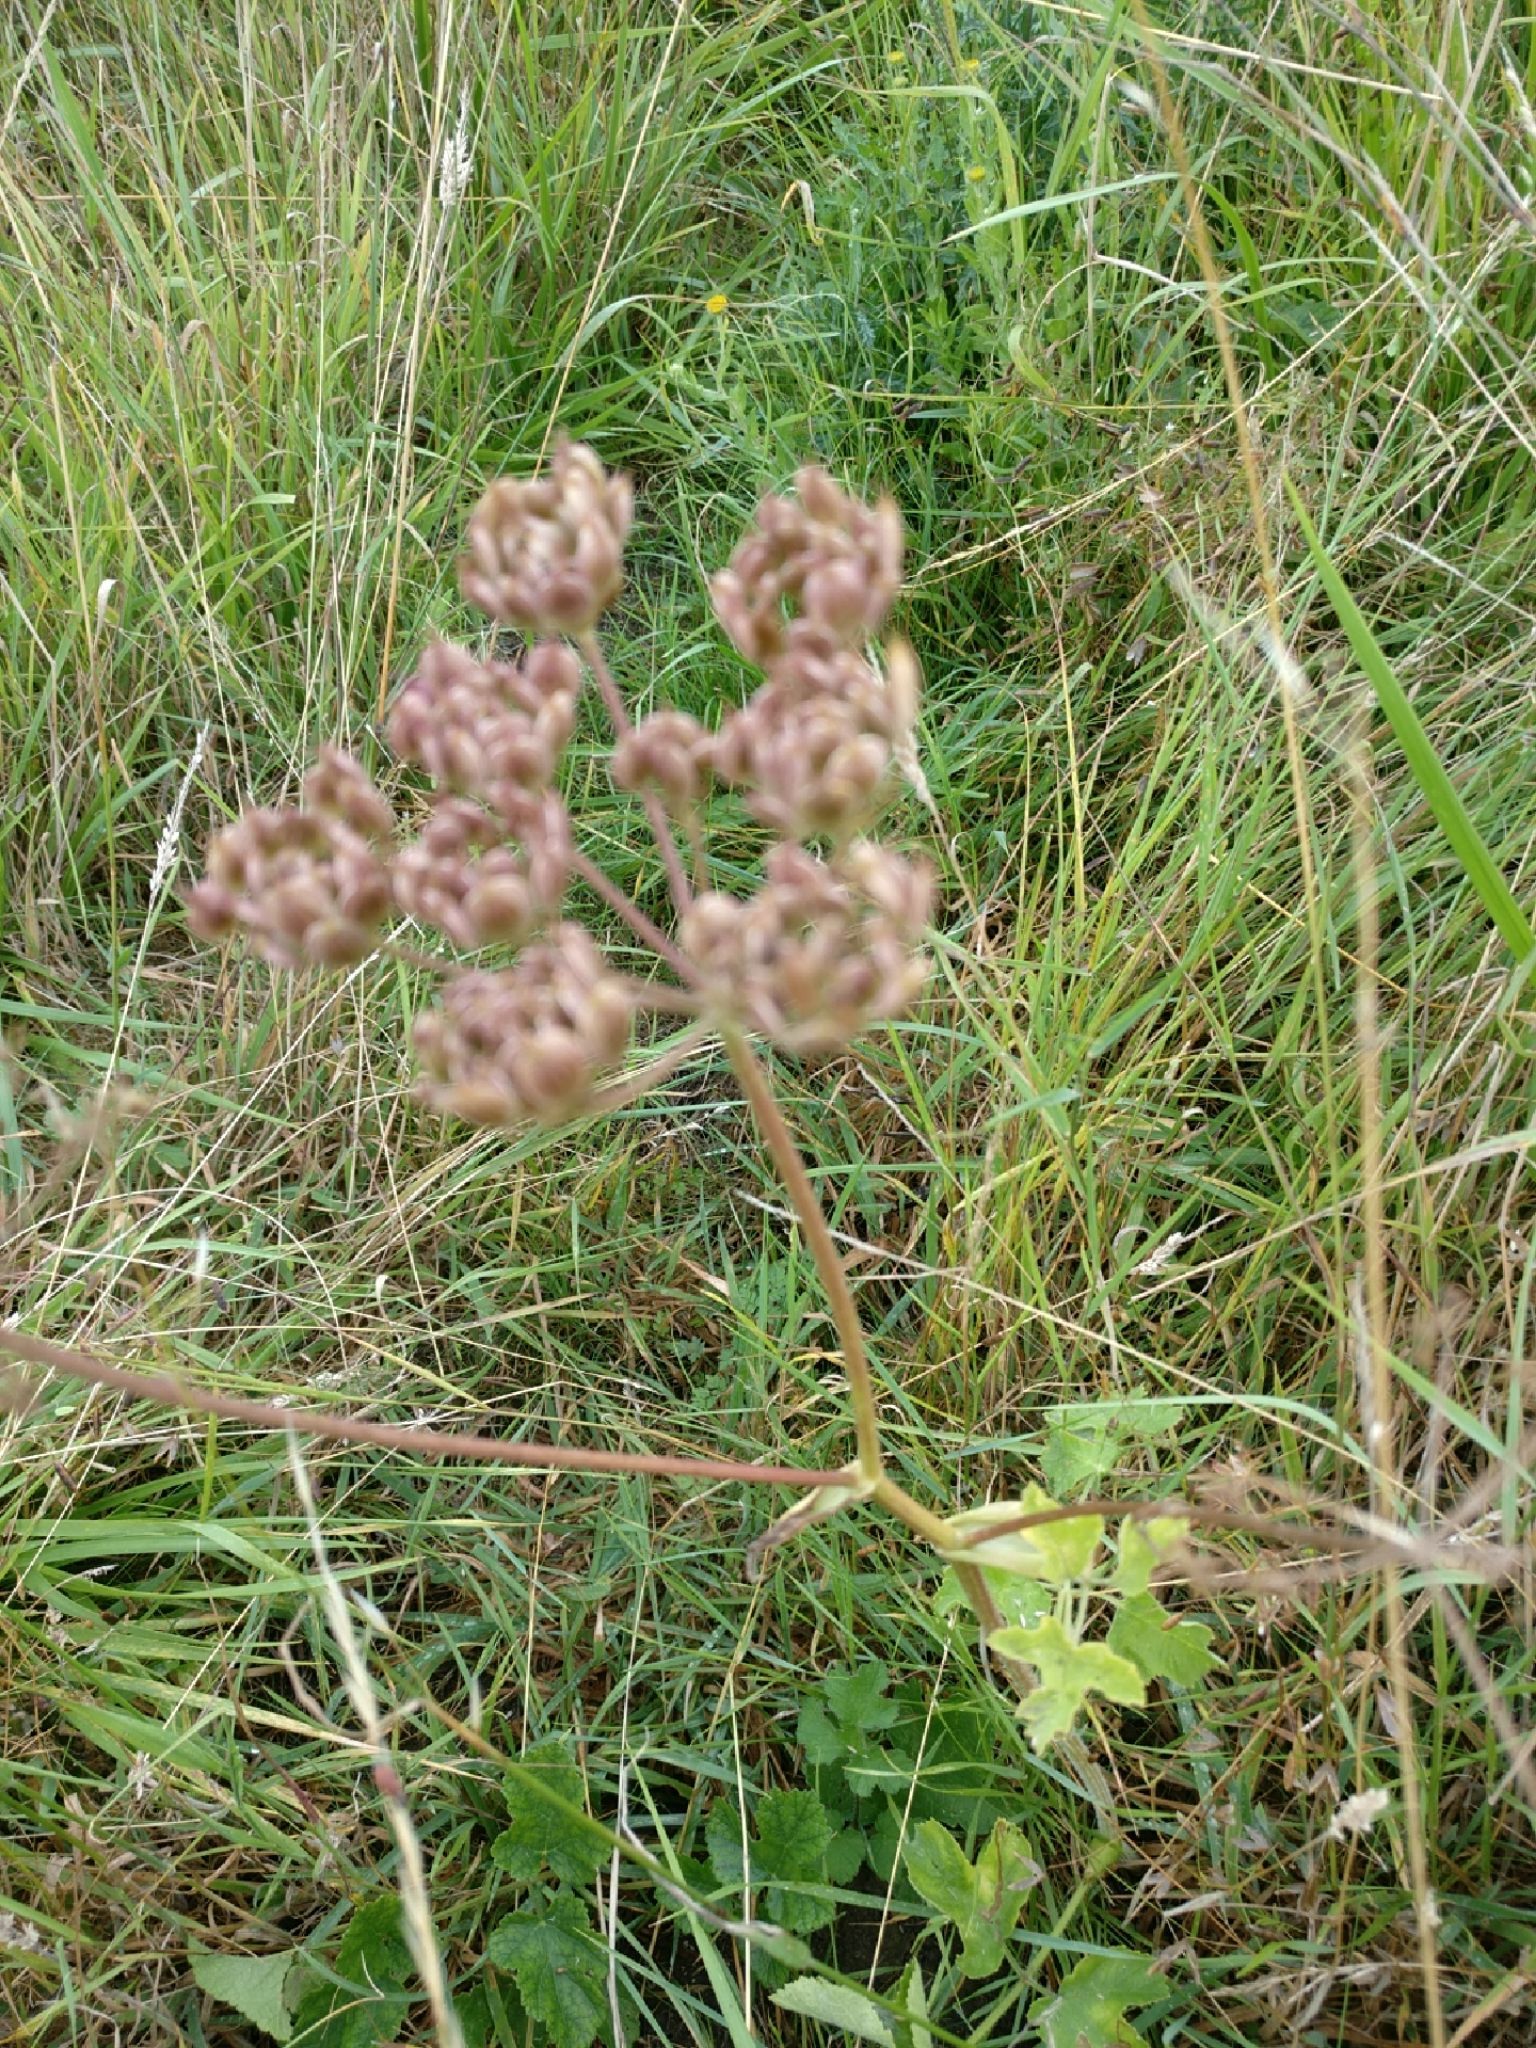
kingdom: Plantae
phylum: Tracheophyta
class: Magnoliopsida
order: Apiales
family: Apiaceae
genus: Heracleum
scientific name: Heracleum sphondylium
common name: Hogweed
